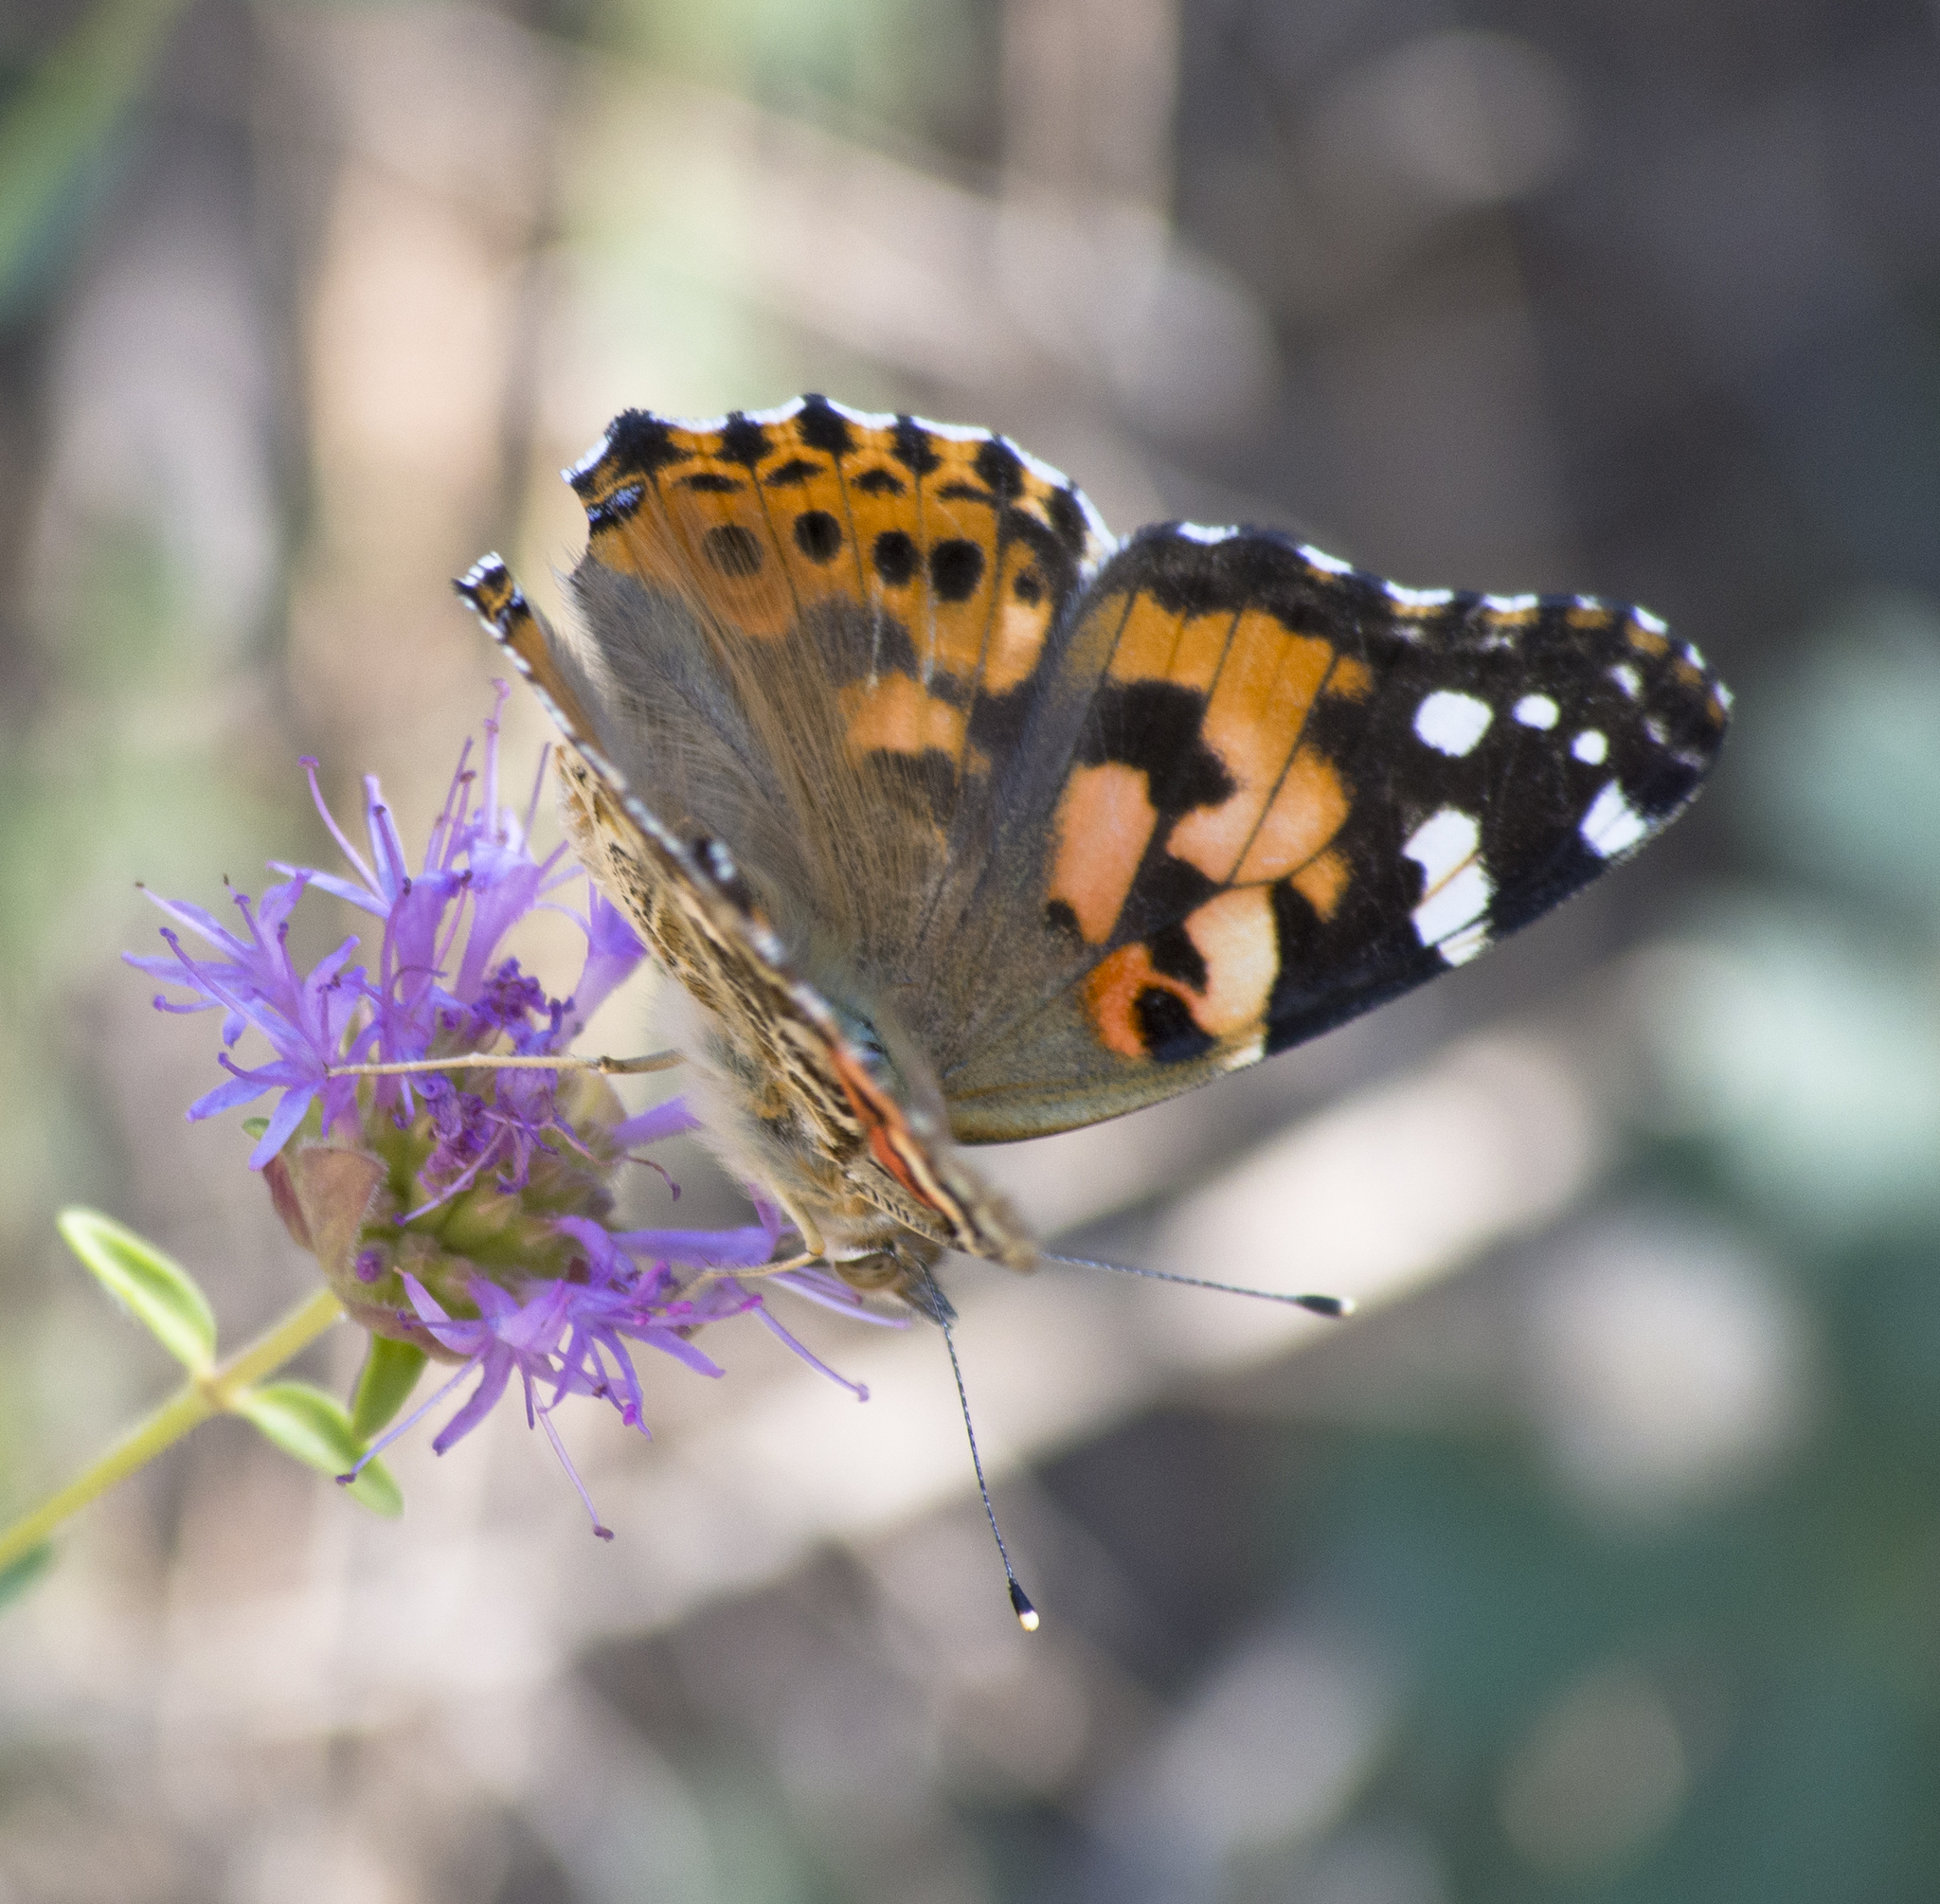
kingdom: Animalia
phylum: Arthropoda
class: Insecta
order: Lepidoptera
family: Nymphalidae
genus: Vanessa
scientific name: Vanessa cardui
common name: Painted lady
